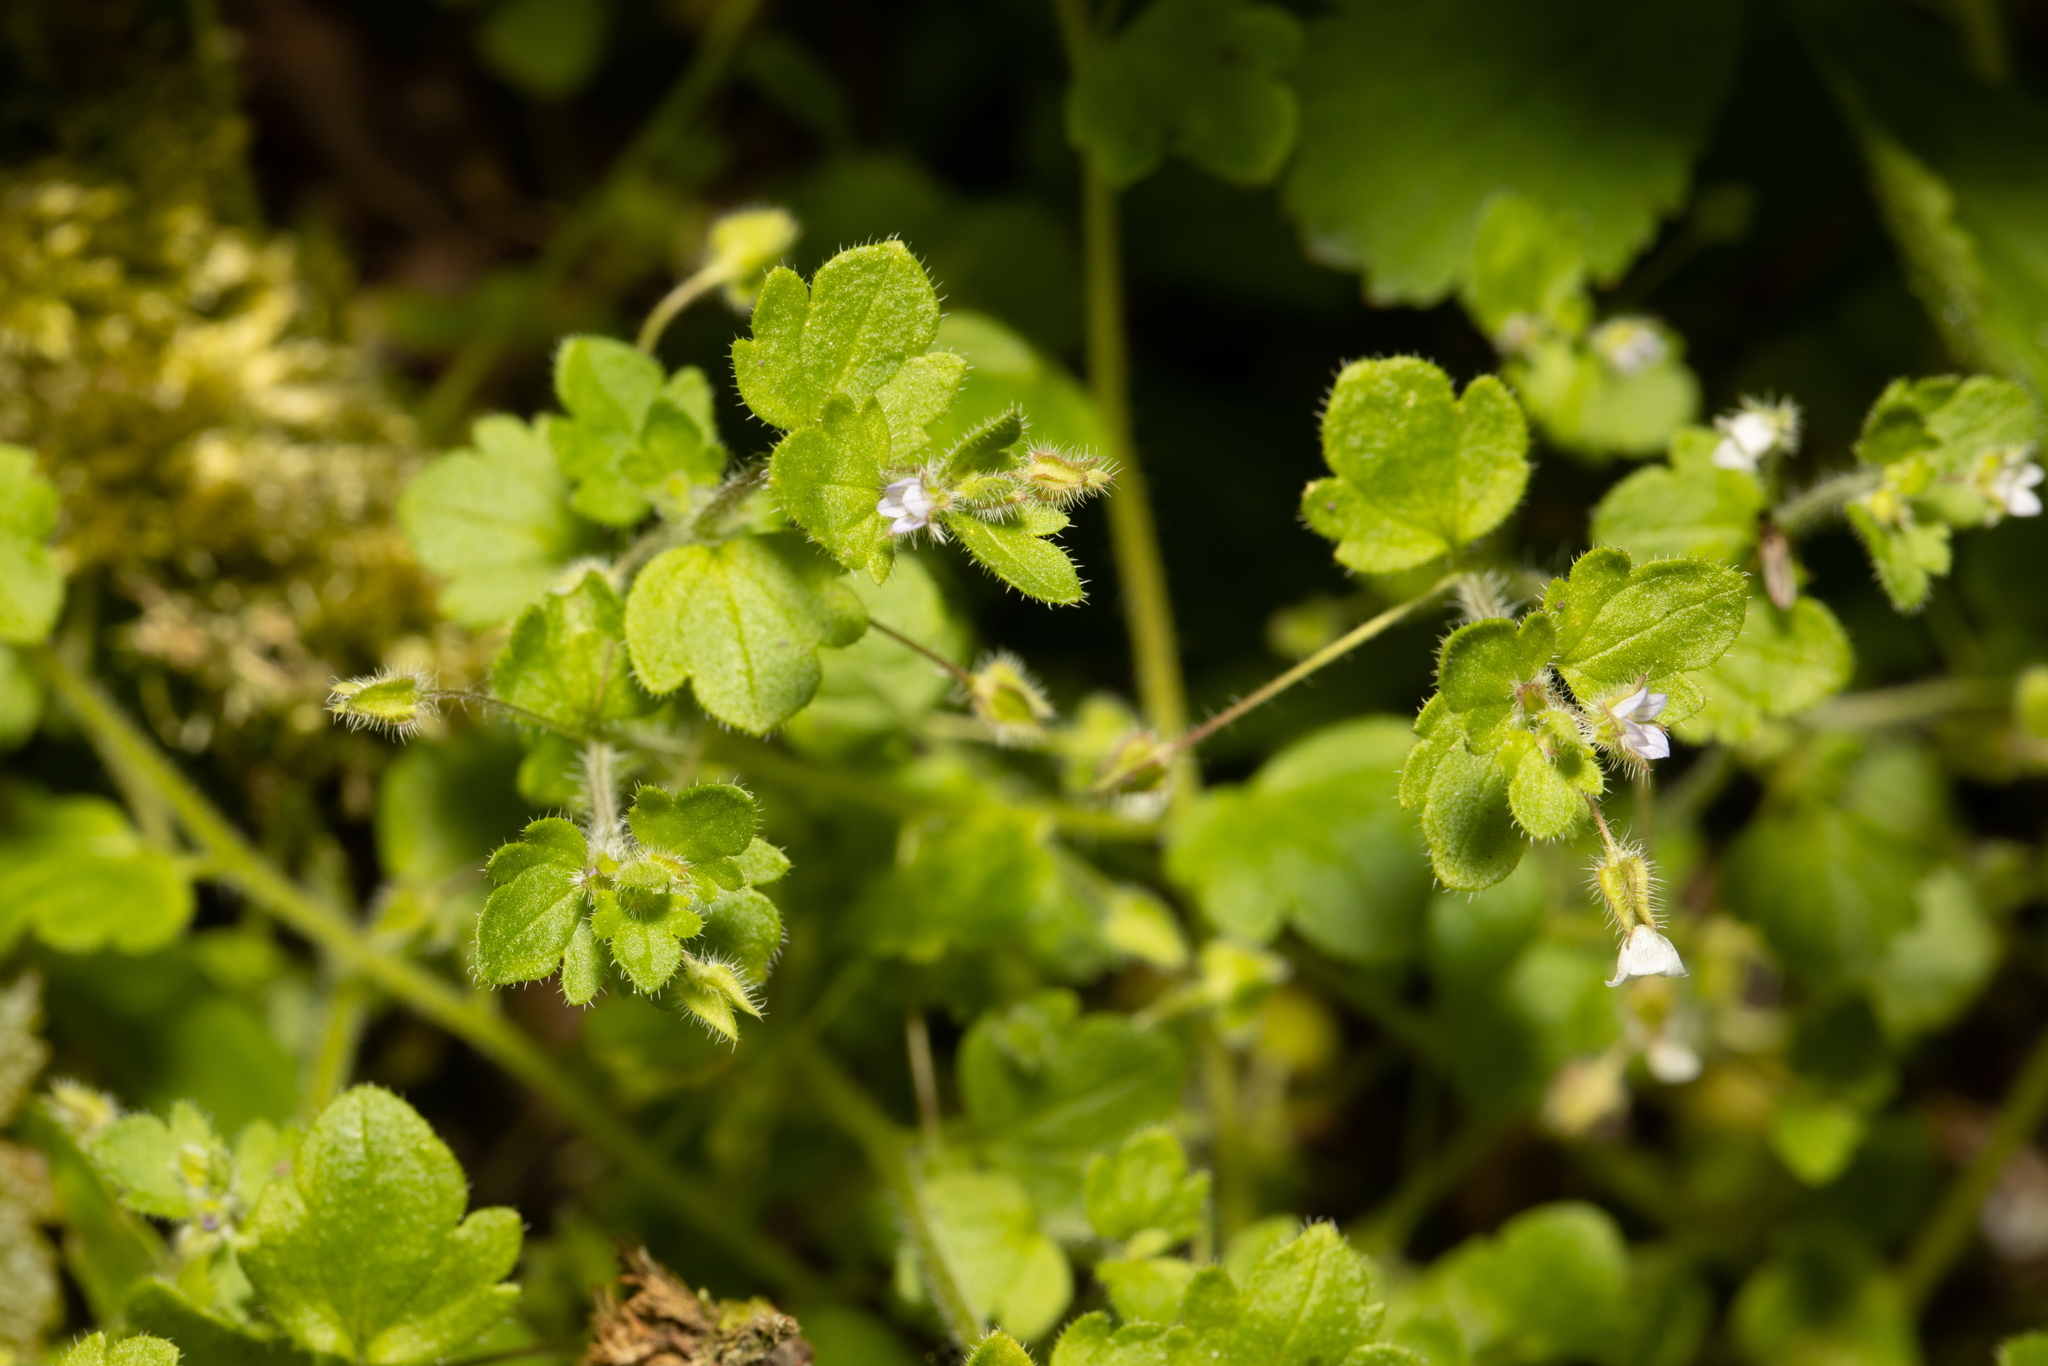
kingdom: Plantae
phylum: Tracheophyta
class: Magnoliopsida
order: Lamiales
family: Plantaginaceae
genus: Veronica
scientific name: Veronica sublobata
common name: False ivy-leaved speedwell
